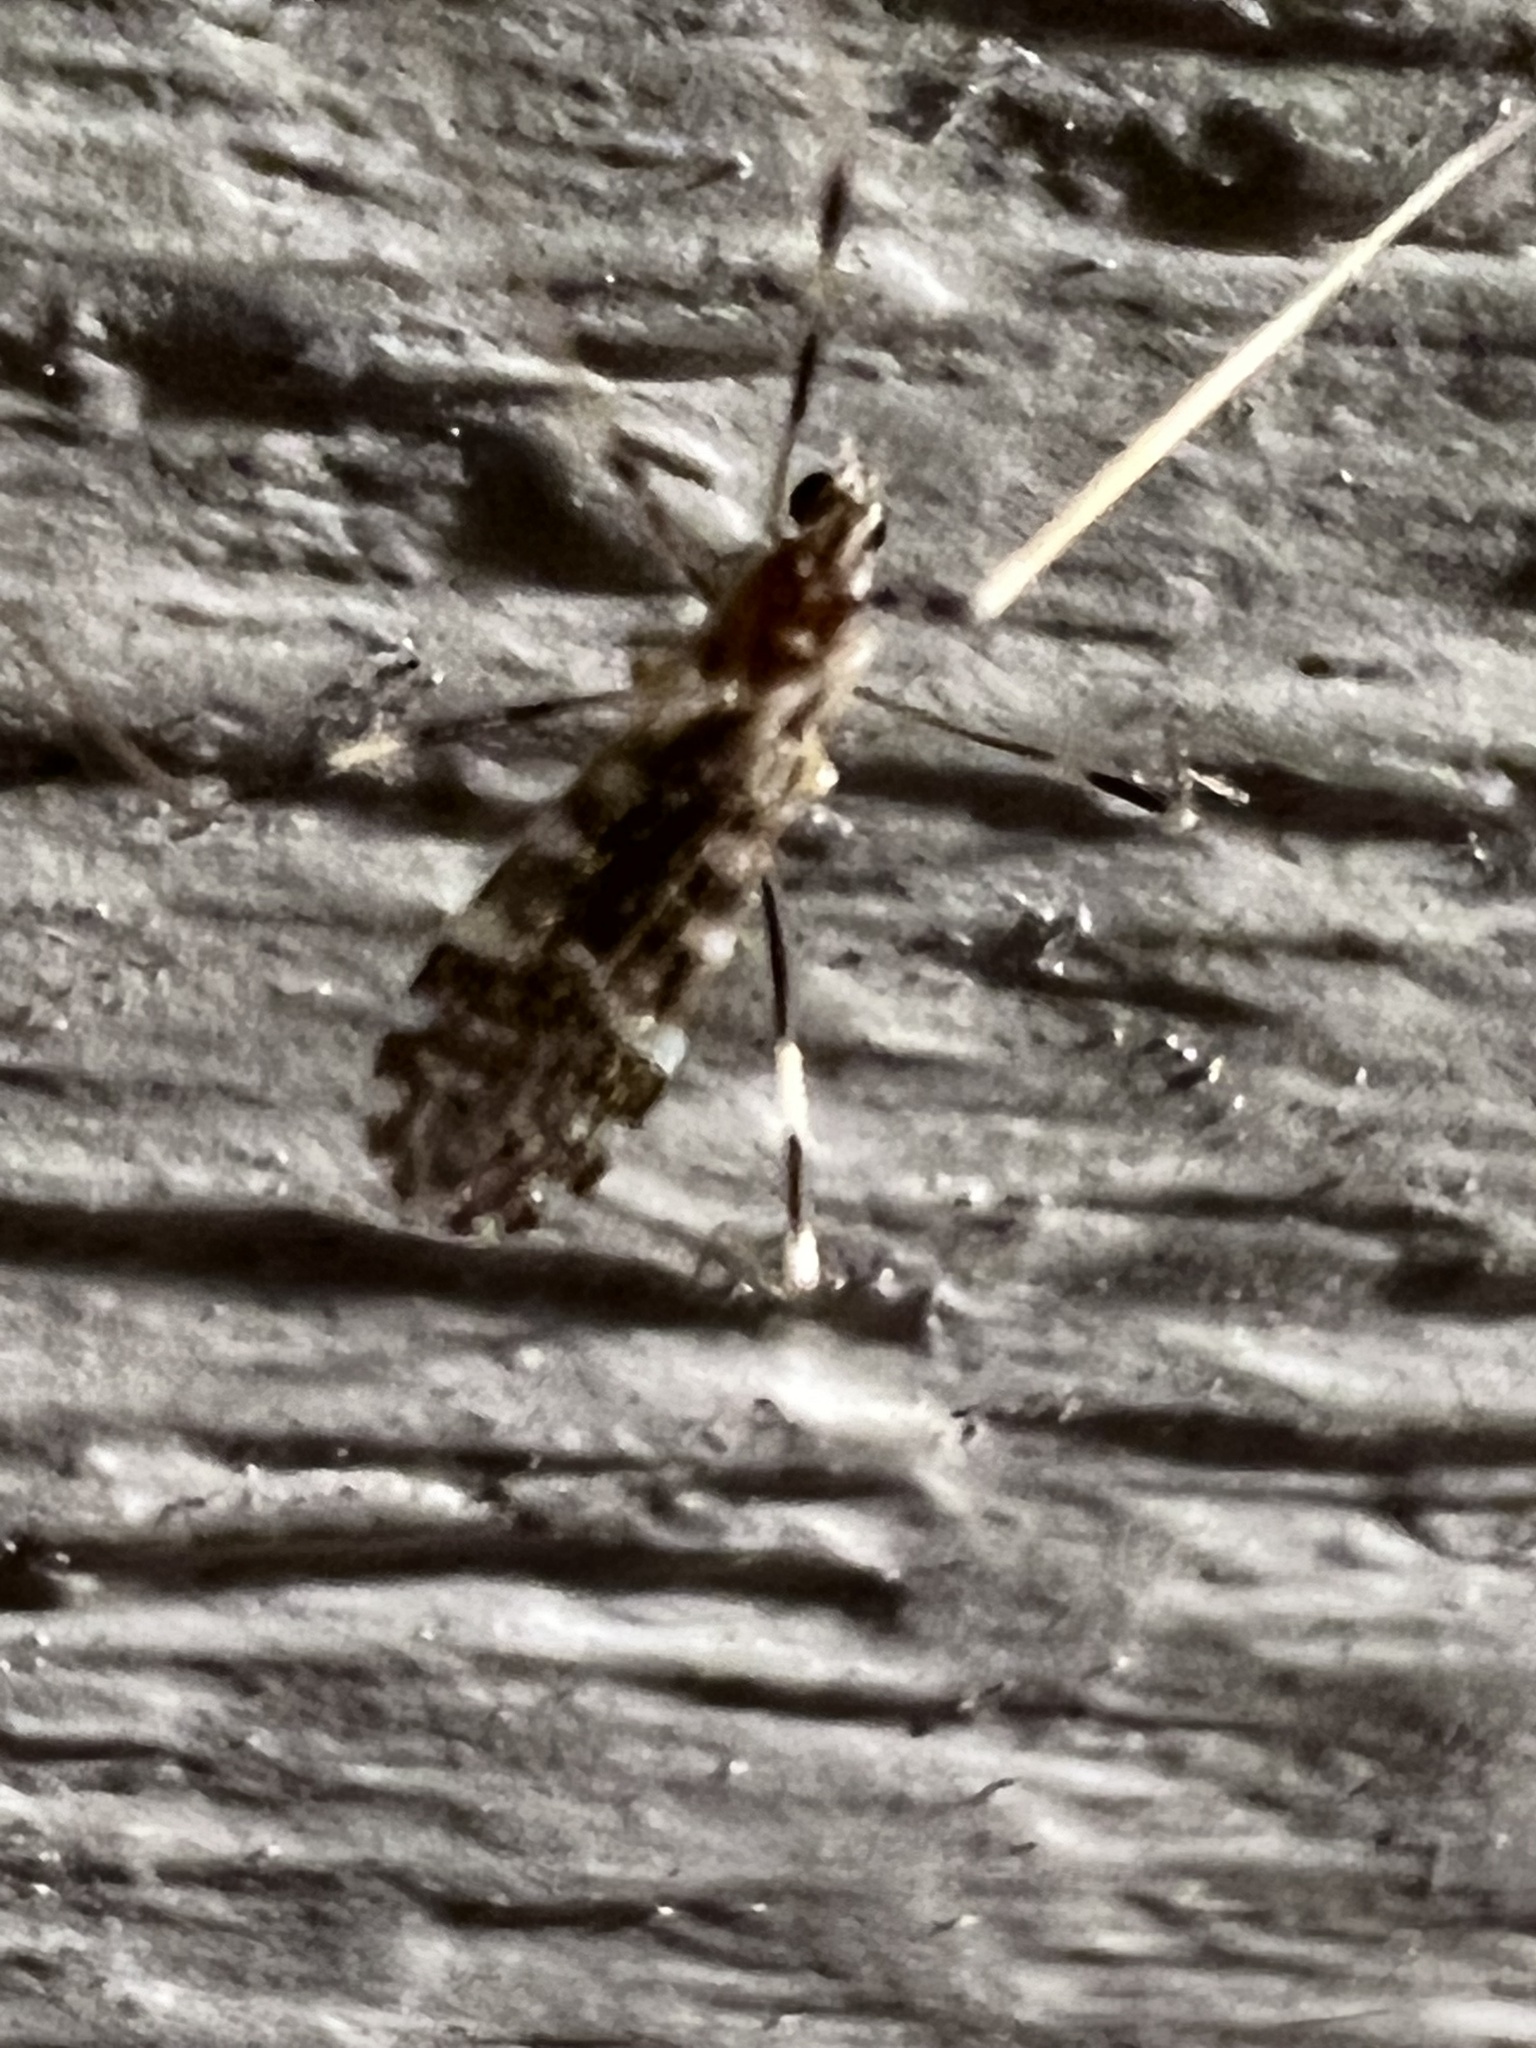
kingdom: Animalia
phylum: Arthropoda
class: Insecta
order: Diptera
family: Limoniidae
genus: Erioptera
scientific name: Erioptera caliptera
